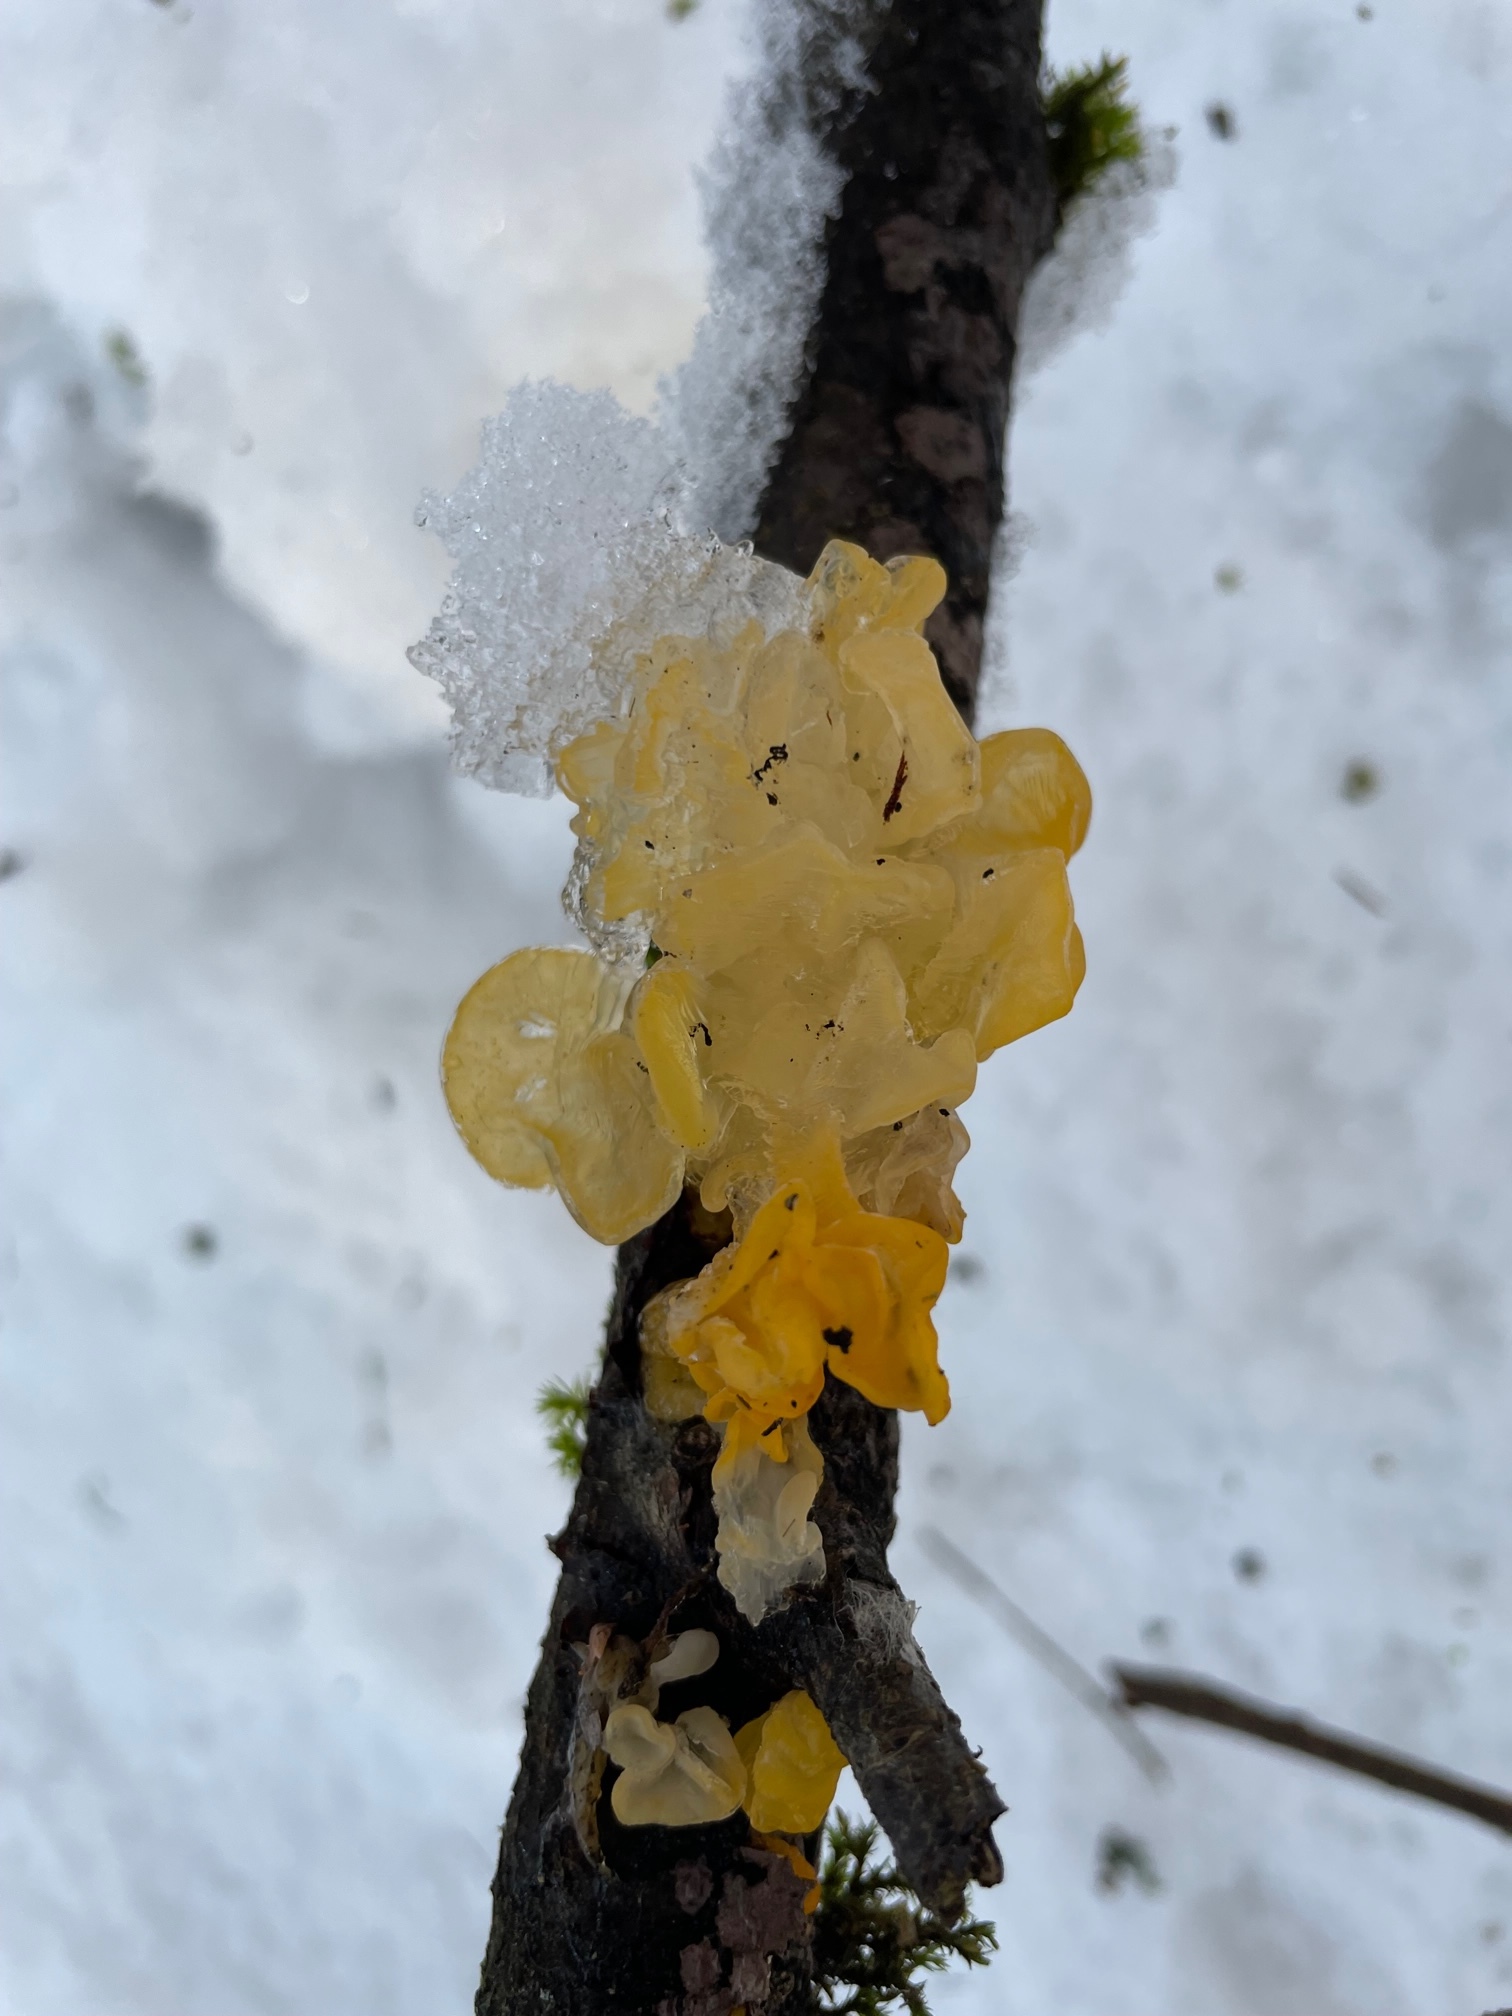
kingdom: Fungi
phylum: Basidiomycota
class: Tremellomycetes
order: Tremellales
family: Tremellaceae
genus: Tremella
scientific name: Tremella mesenterica
